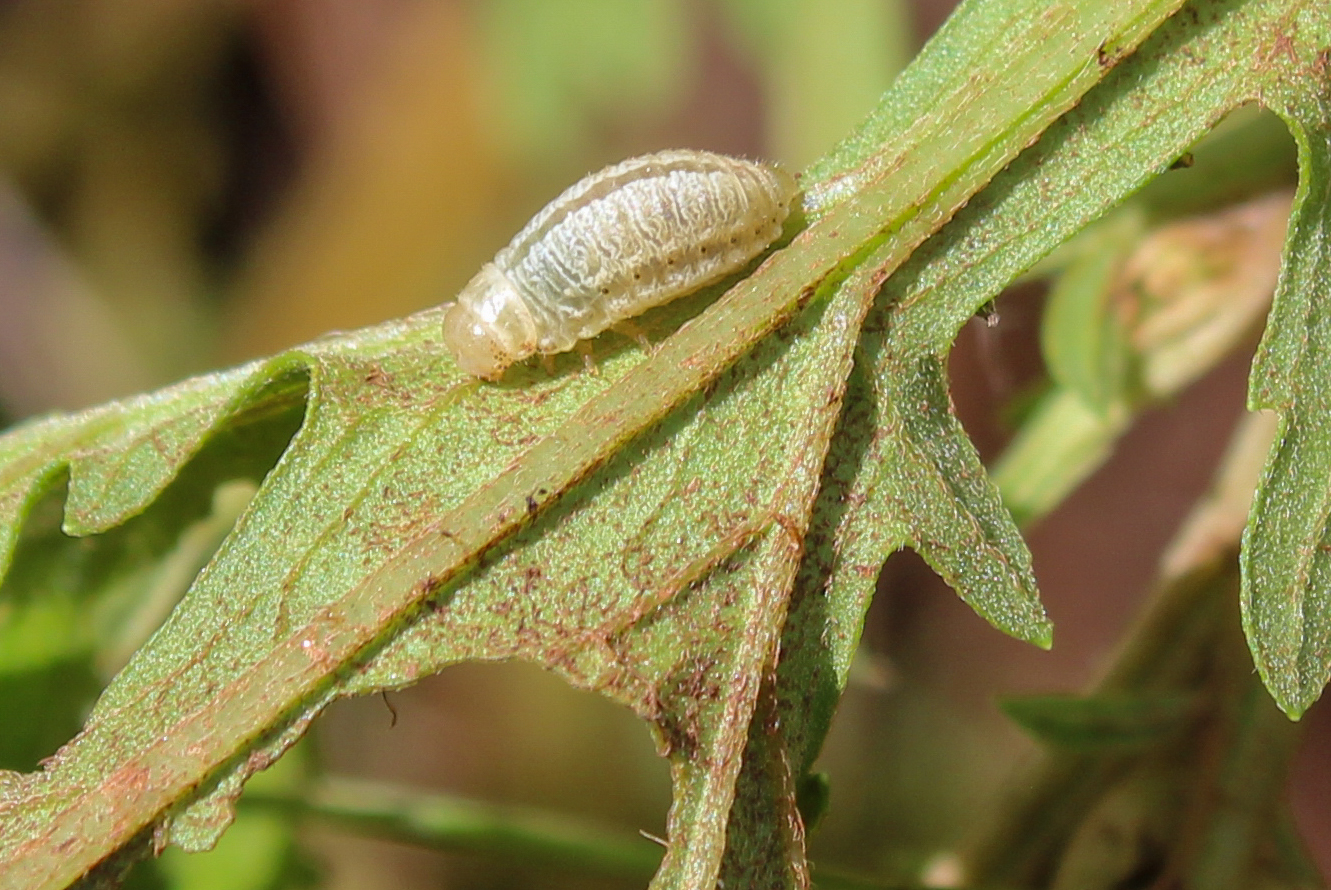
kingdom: Animalia
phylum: Arthropoda
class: Insecta
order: Coleoptera
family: Chrysomelidae
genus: Calligrapha
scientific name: Calligrapha
